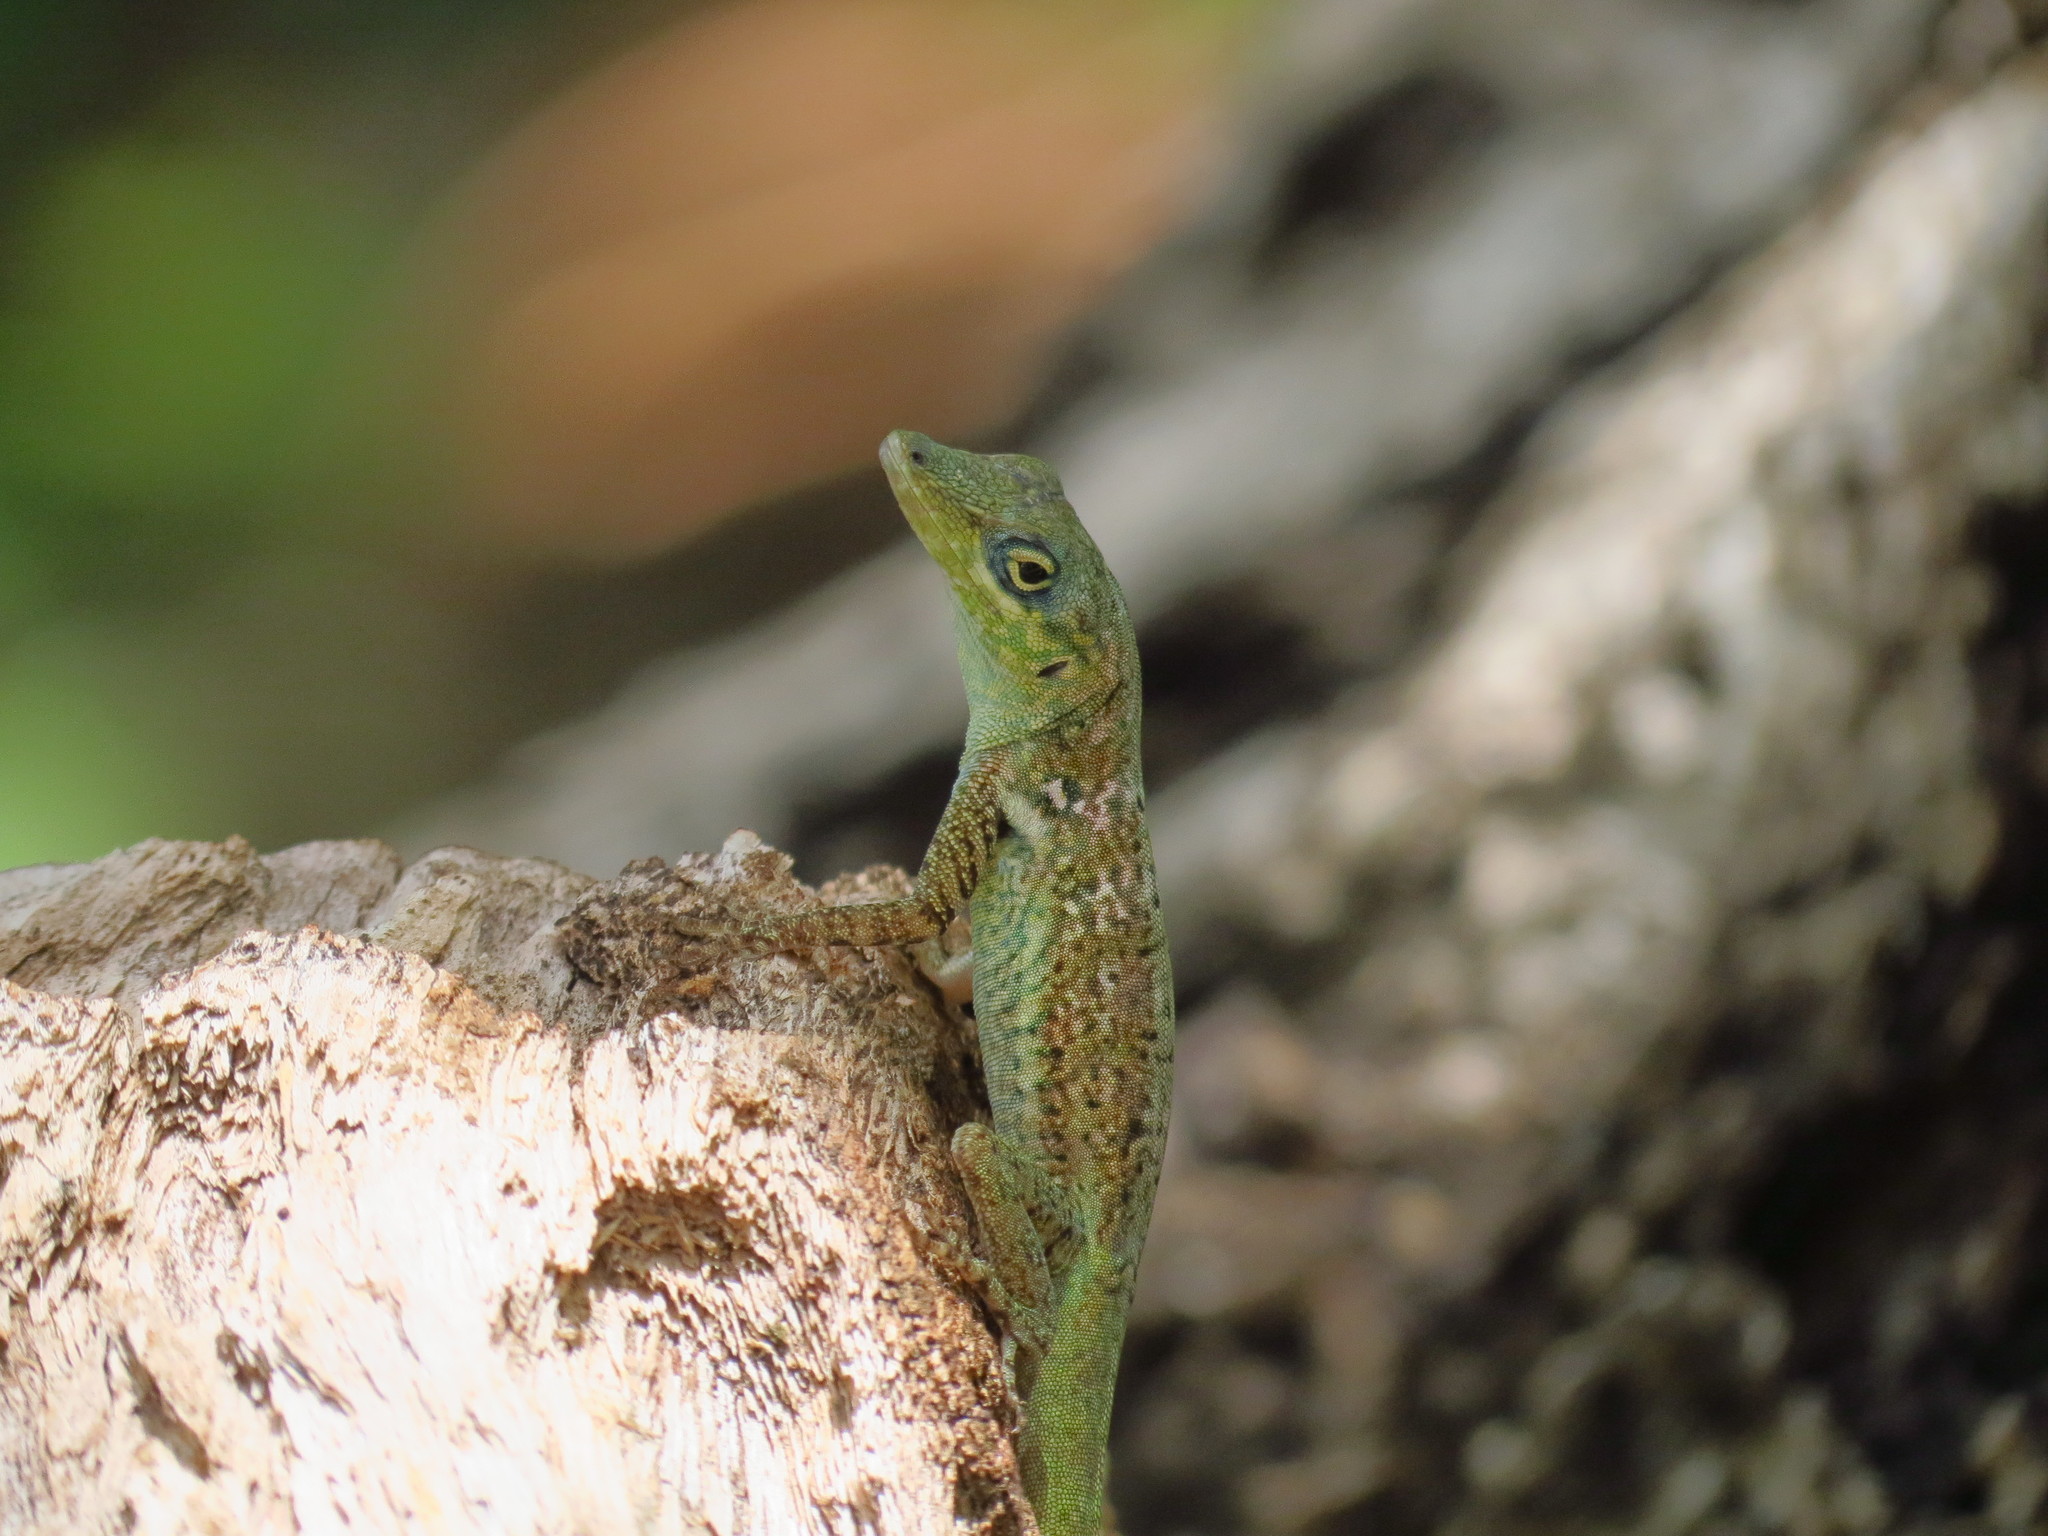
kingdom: Animalia
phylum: Chordata
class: Squamata
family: Dactyloidae
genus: Anolis
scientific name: Anolis roquet
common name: Martinique anole
